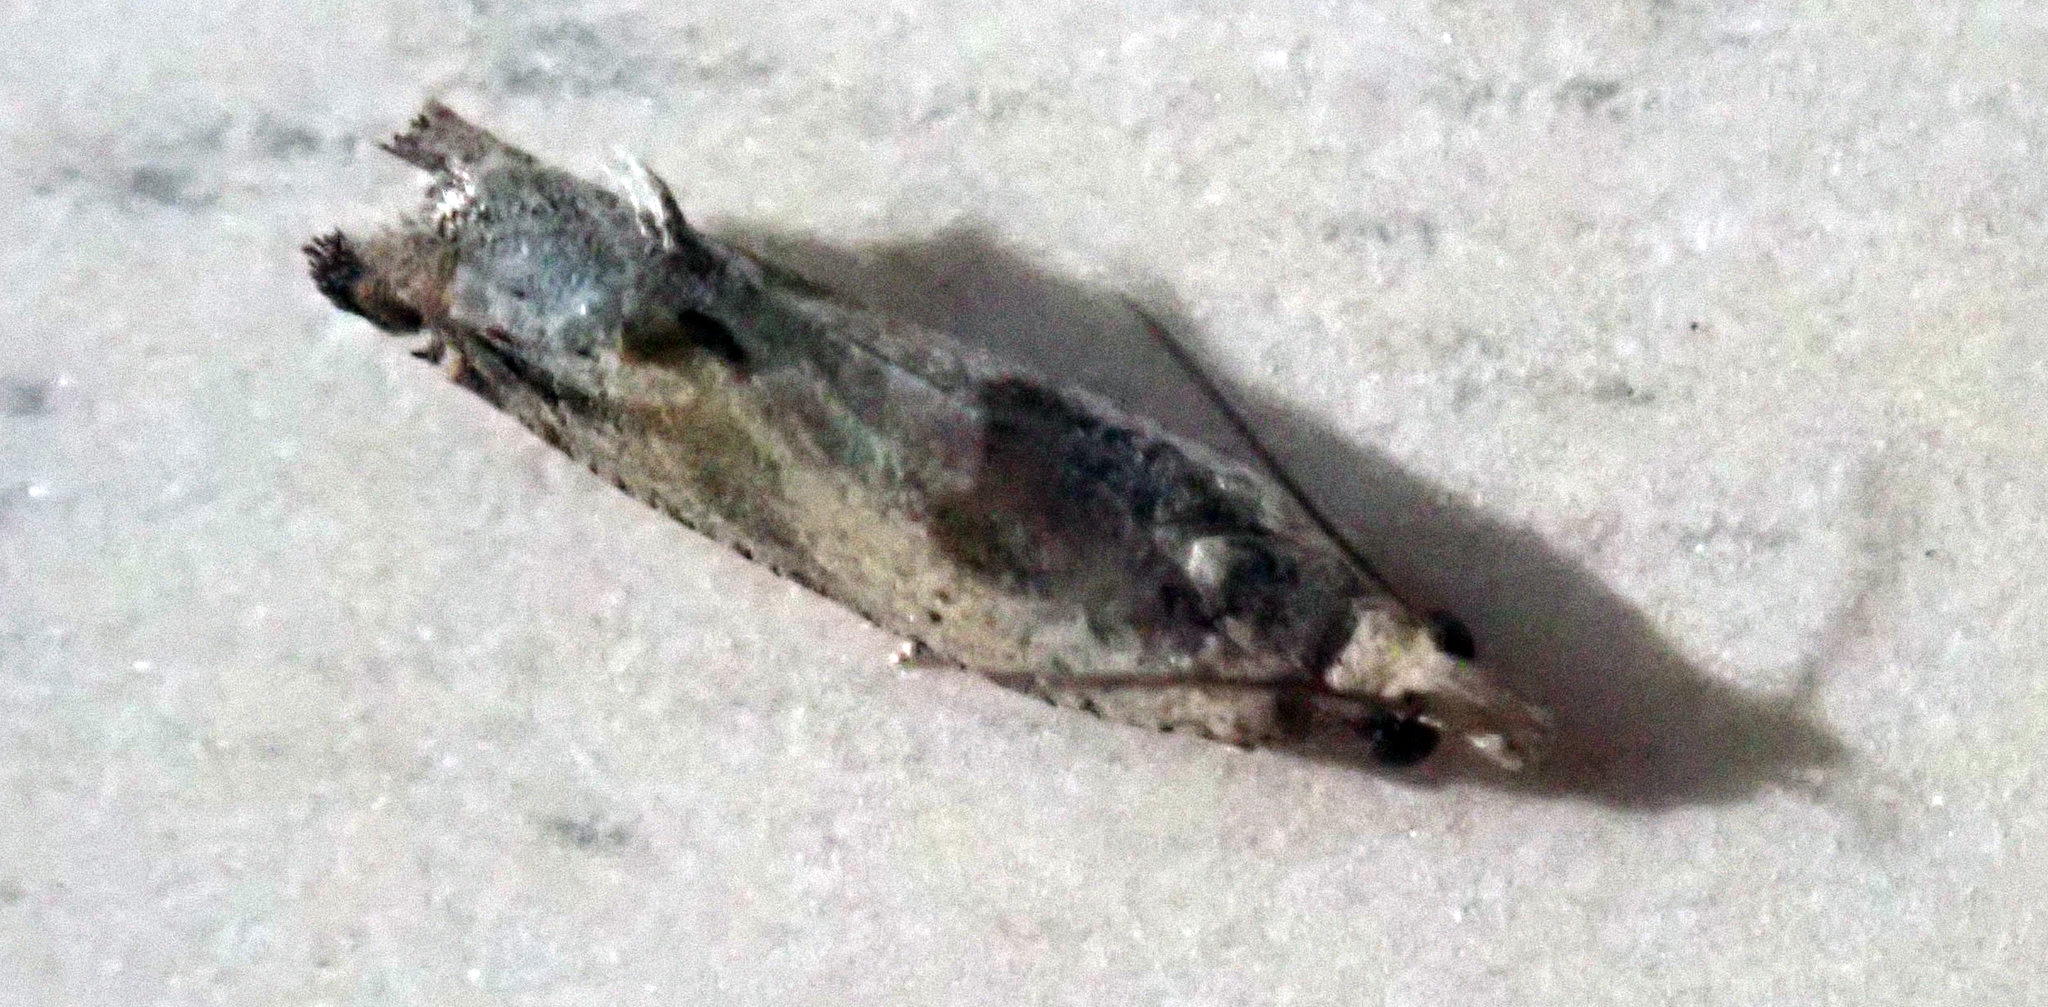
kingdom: Animalia
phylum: Arthropoda
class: Insecta
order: Lepidoptera
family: Tortricidae
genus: Crocidosema
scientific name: Crocidosema plebejana
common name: Southern bell
